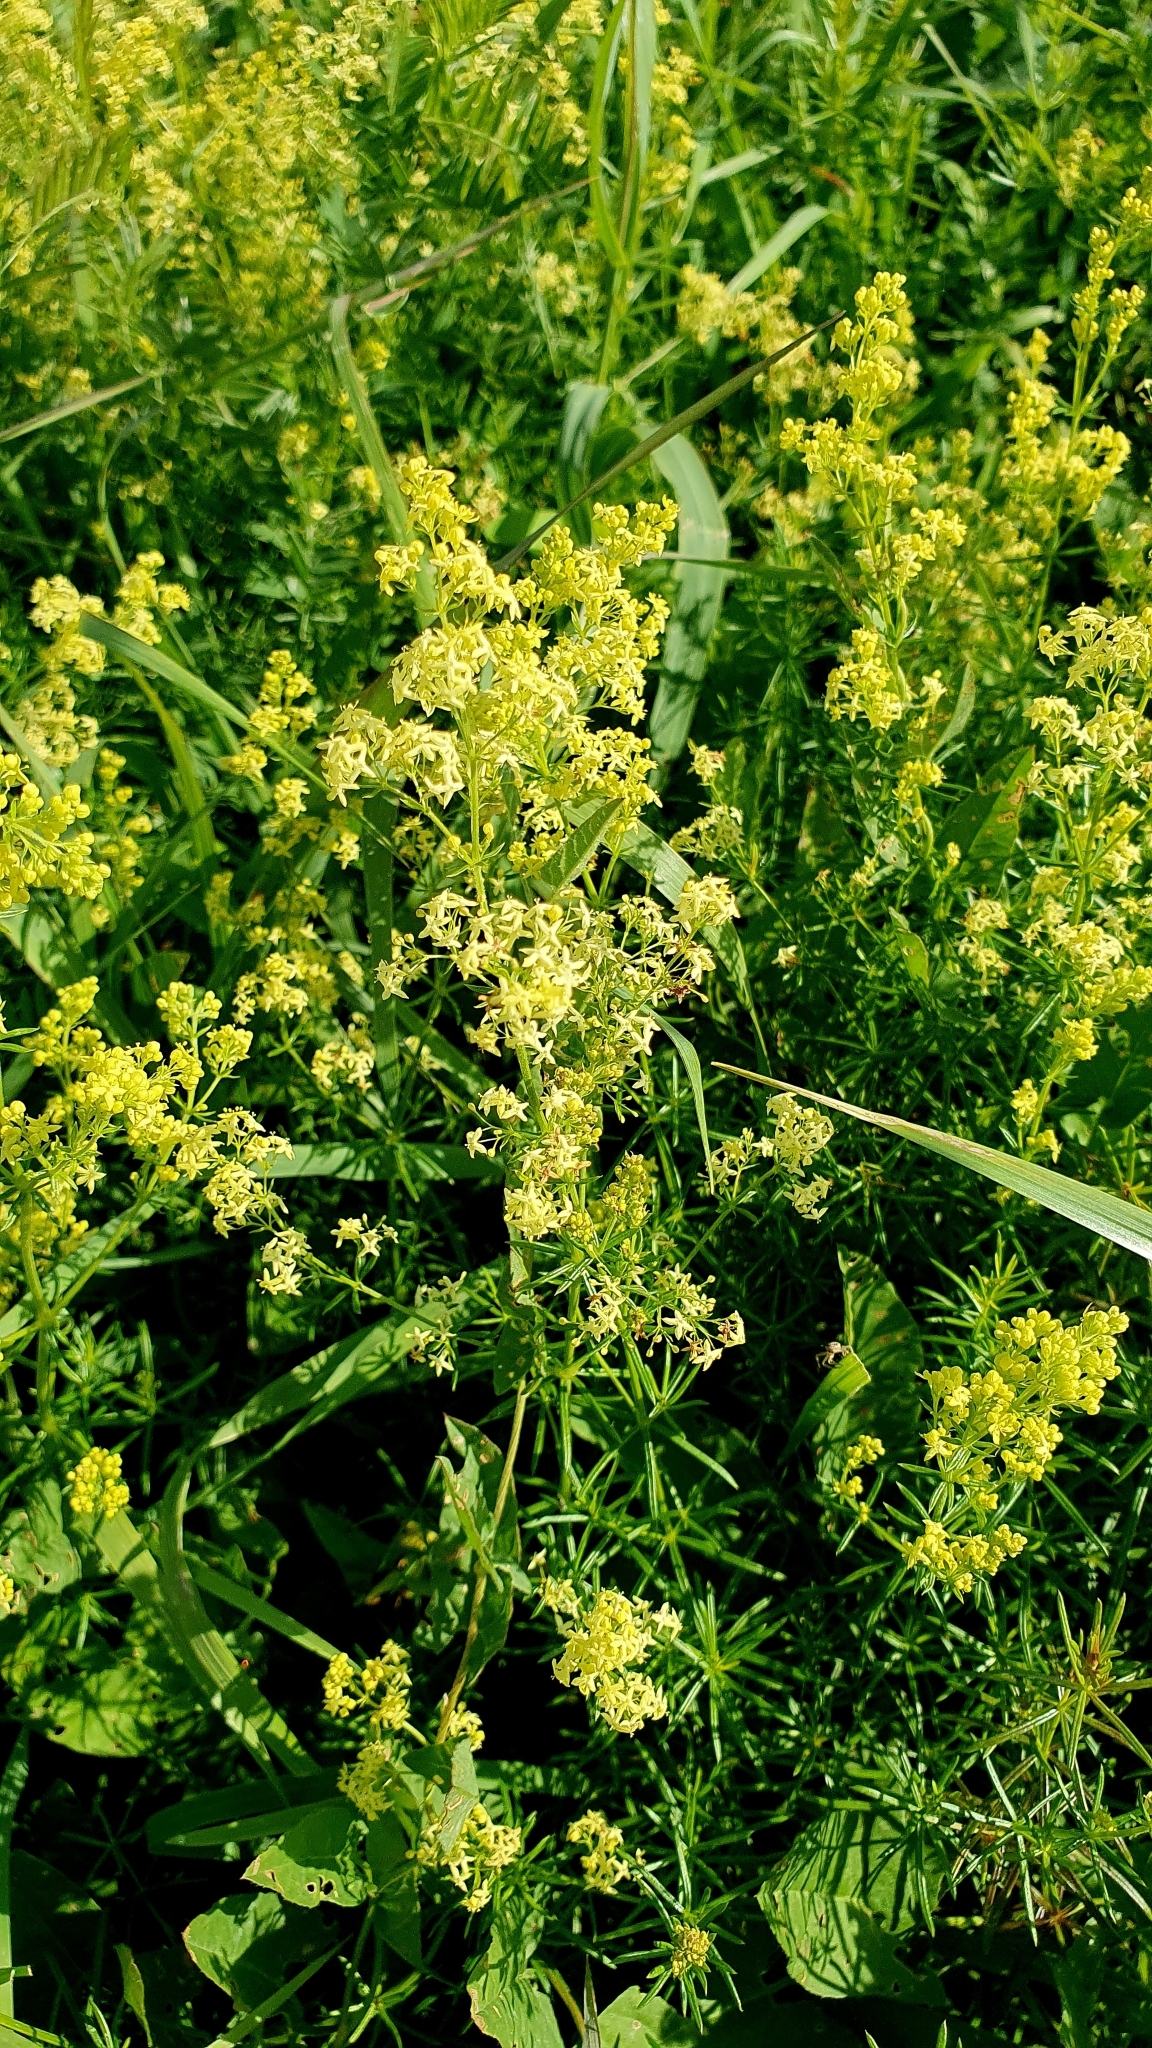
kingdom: Plantae
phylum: Tracheophyta
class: Magnoliopsida
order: Gentianales
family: Rubiaceae
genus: Galium
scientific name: Galium verum
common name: Lady's bedstraw
